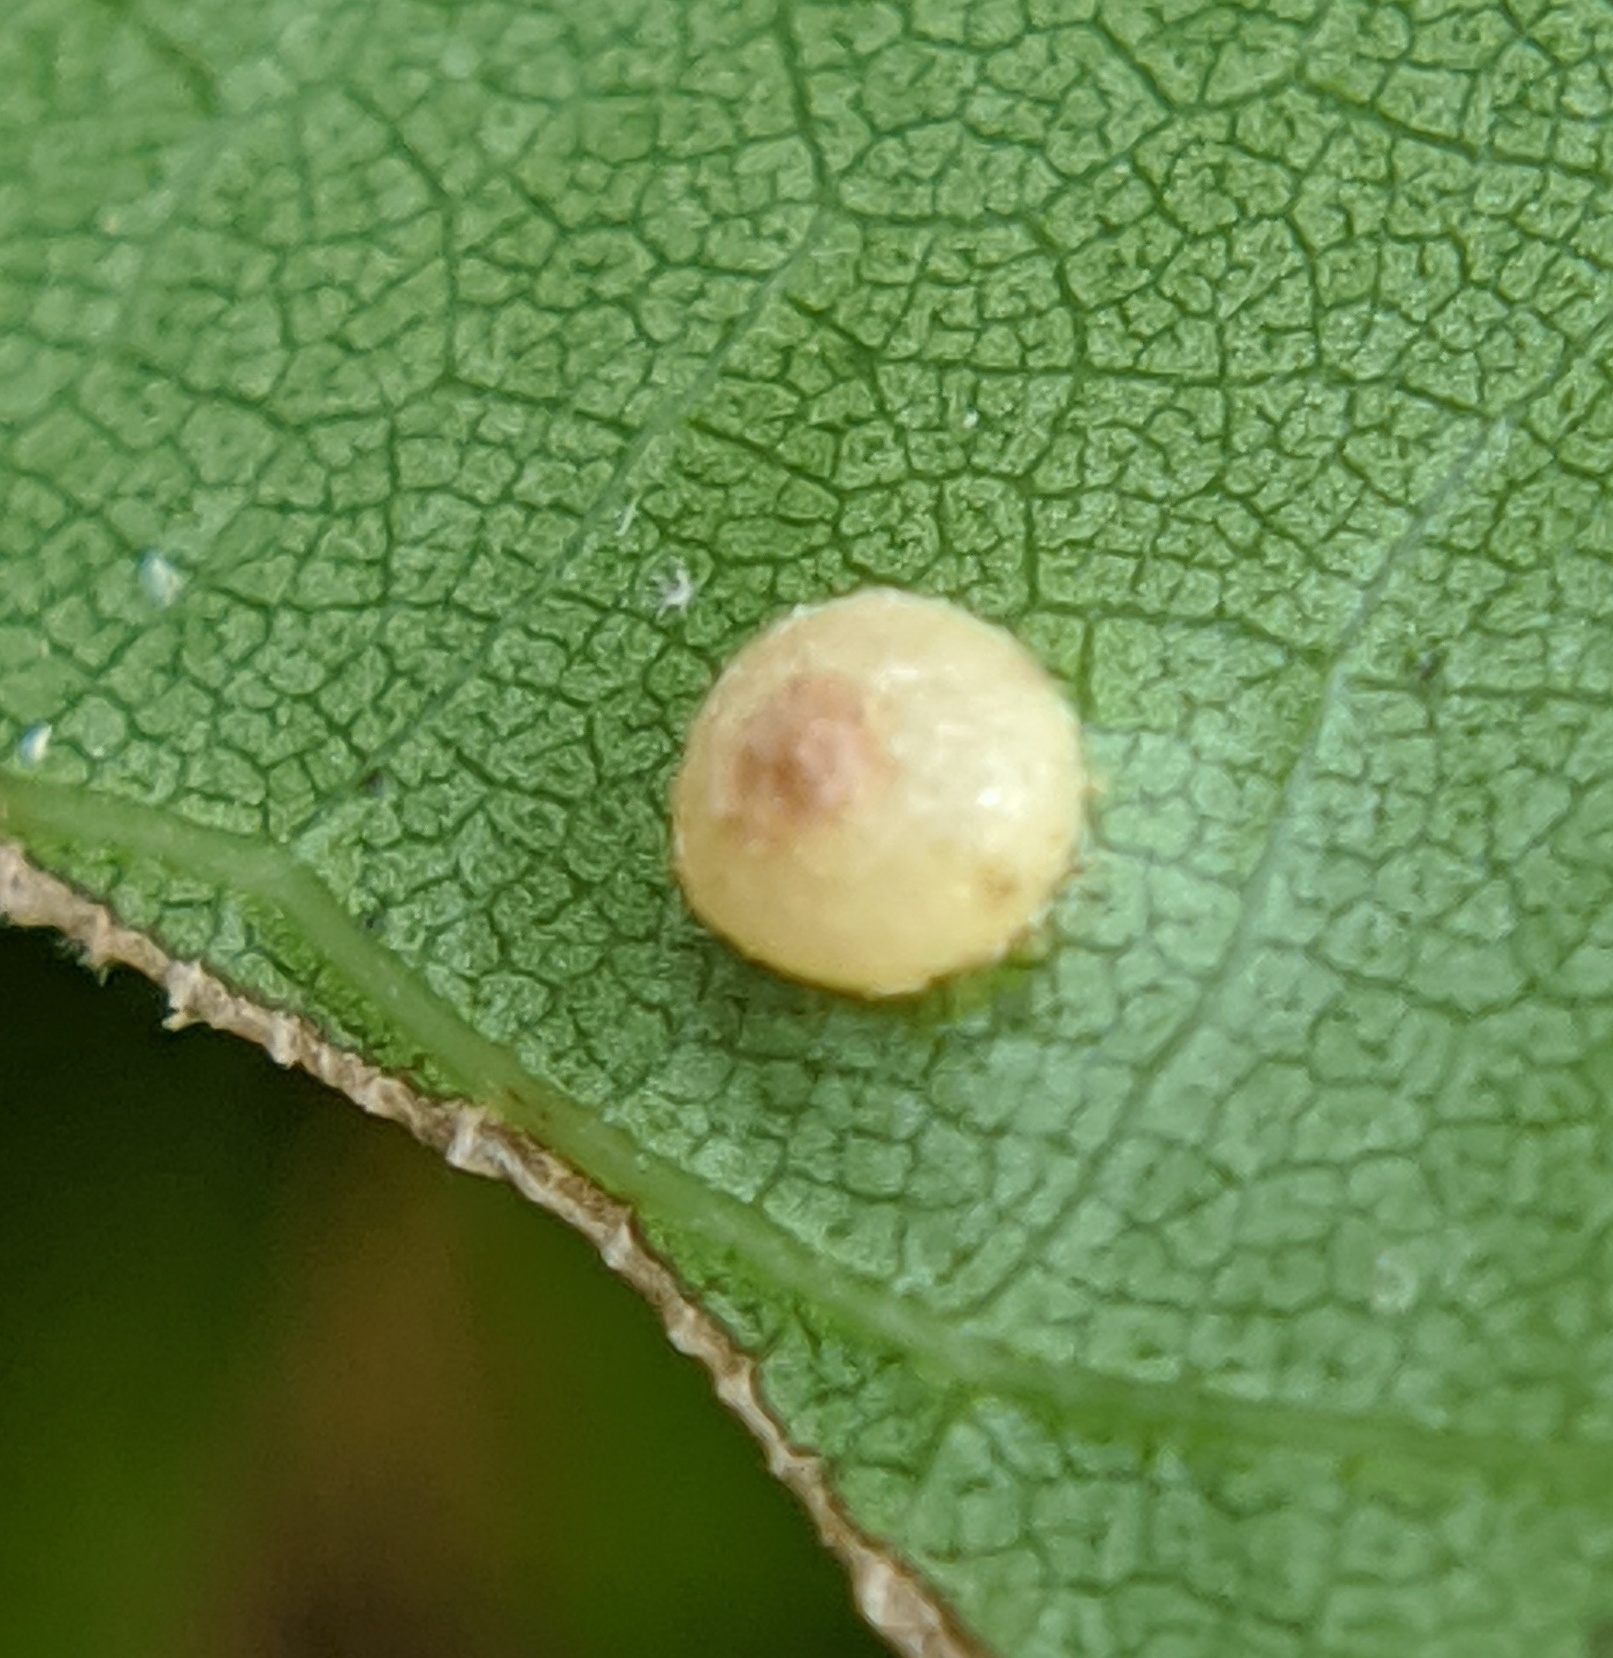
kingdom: Animalia
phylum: Arthropoda
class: Insecta
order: Diptera
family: Cecidomyiidae
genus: Polystepha
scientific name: Polystepha globosa
